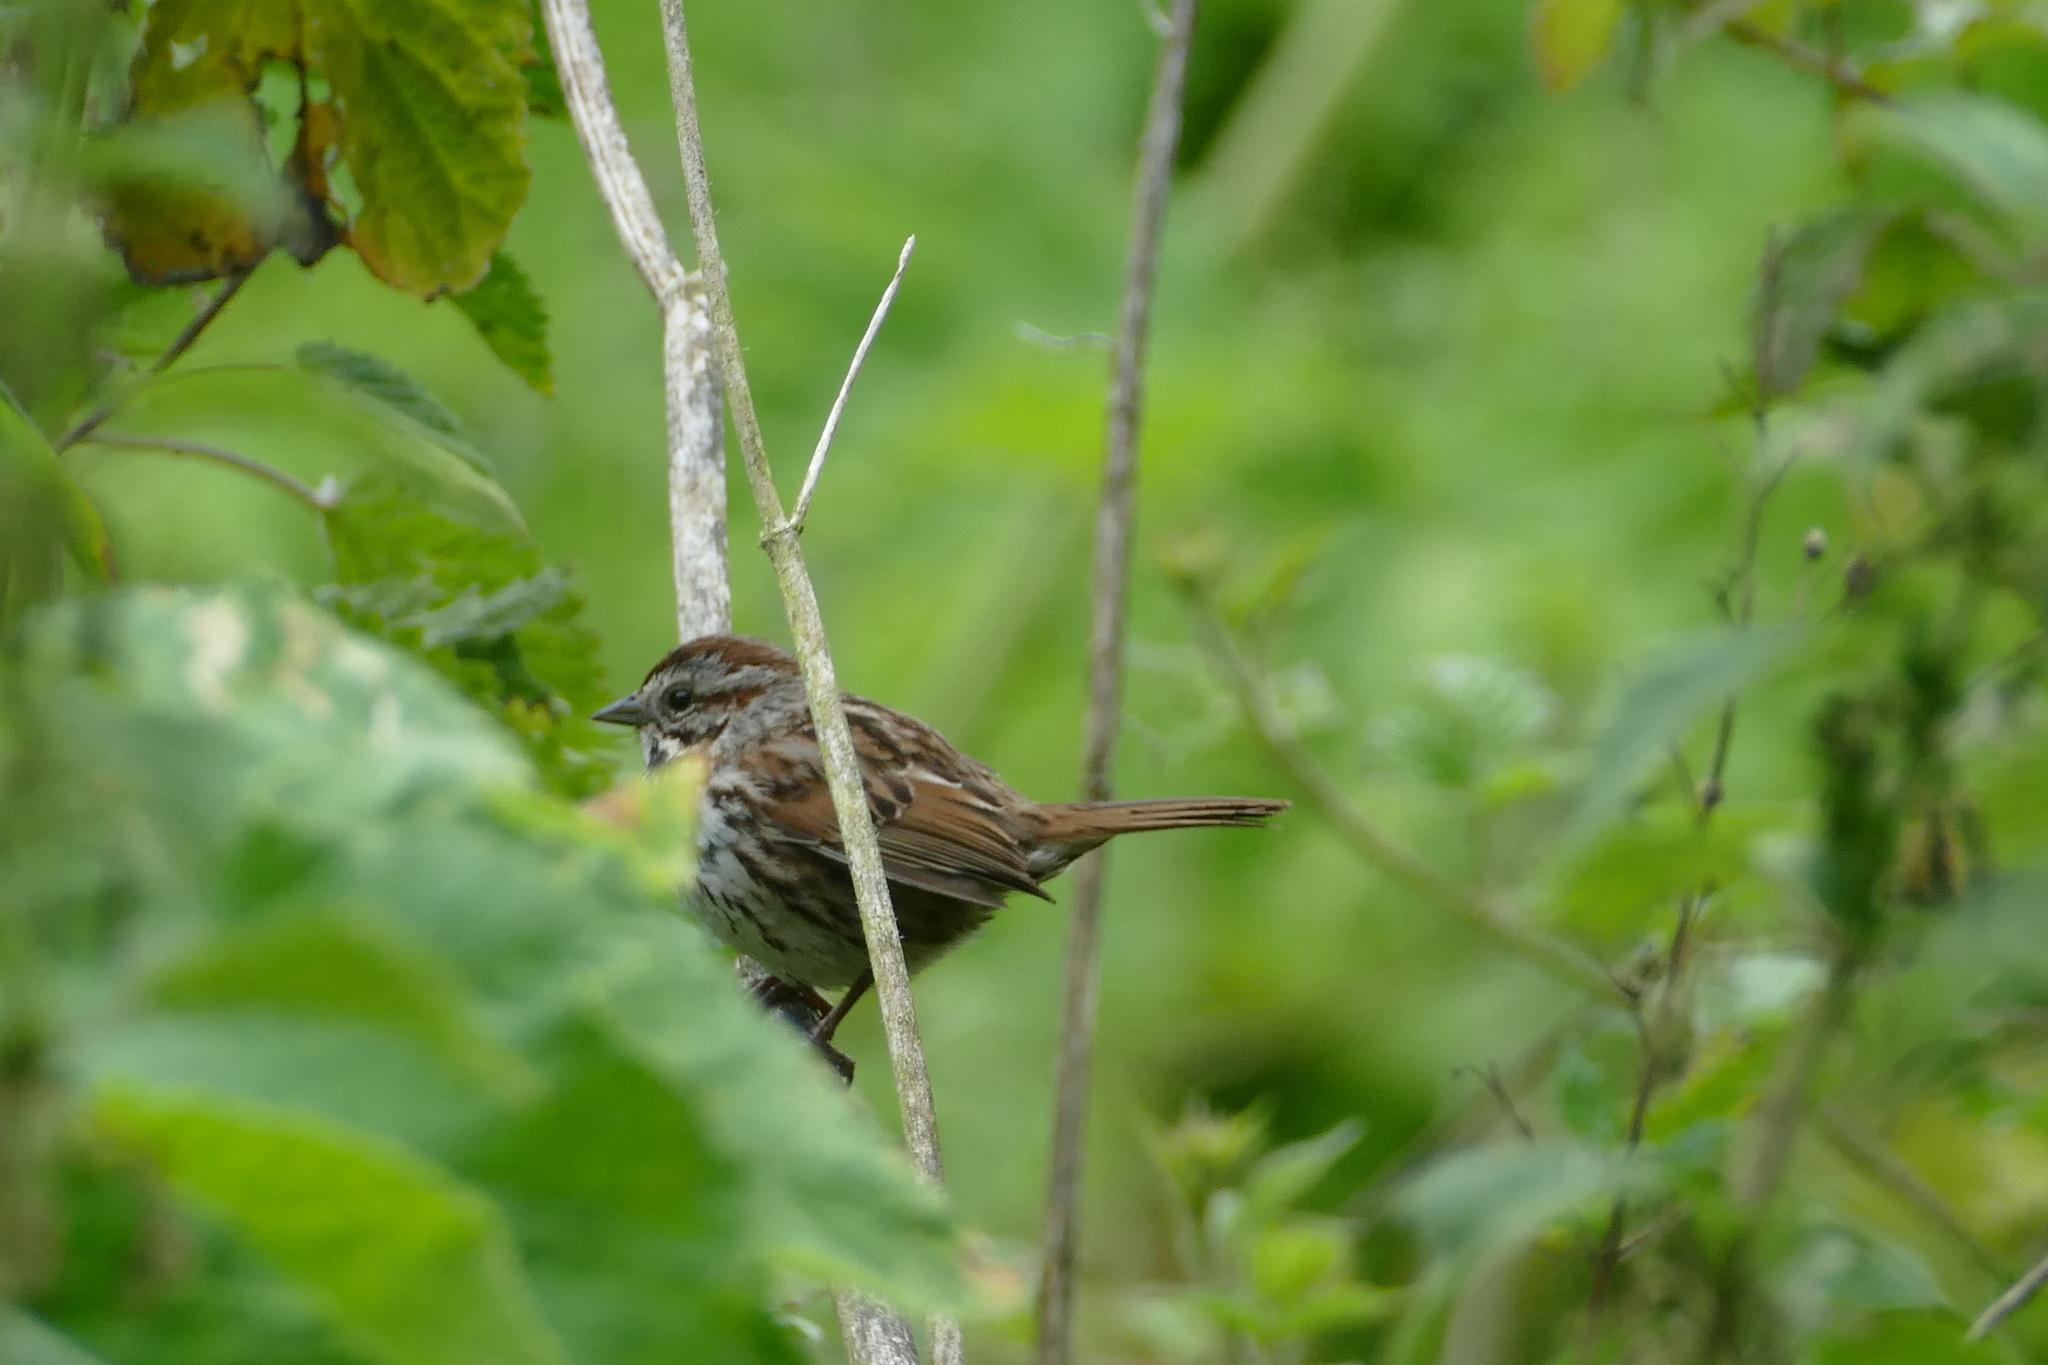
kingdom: Animalia
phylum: Chordata
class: Aves
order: Passeriformes
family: Passerellidae
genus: Melospiza
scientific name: Melospiza melodia
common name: Song sparrow
